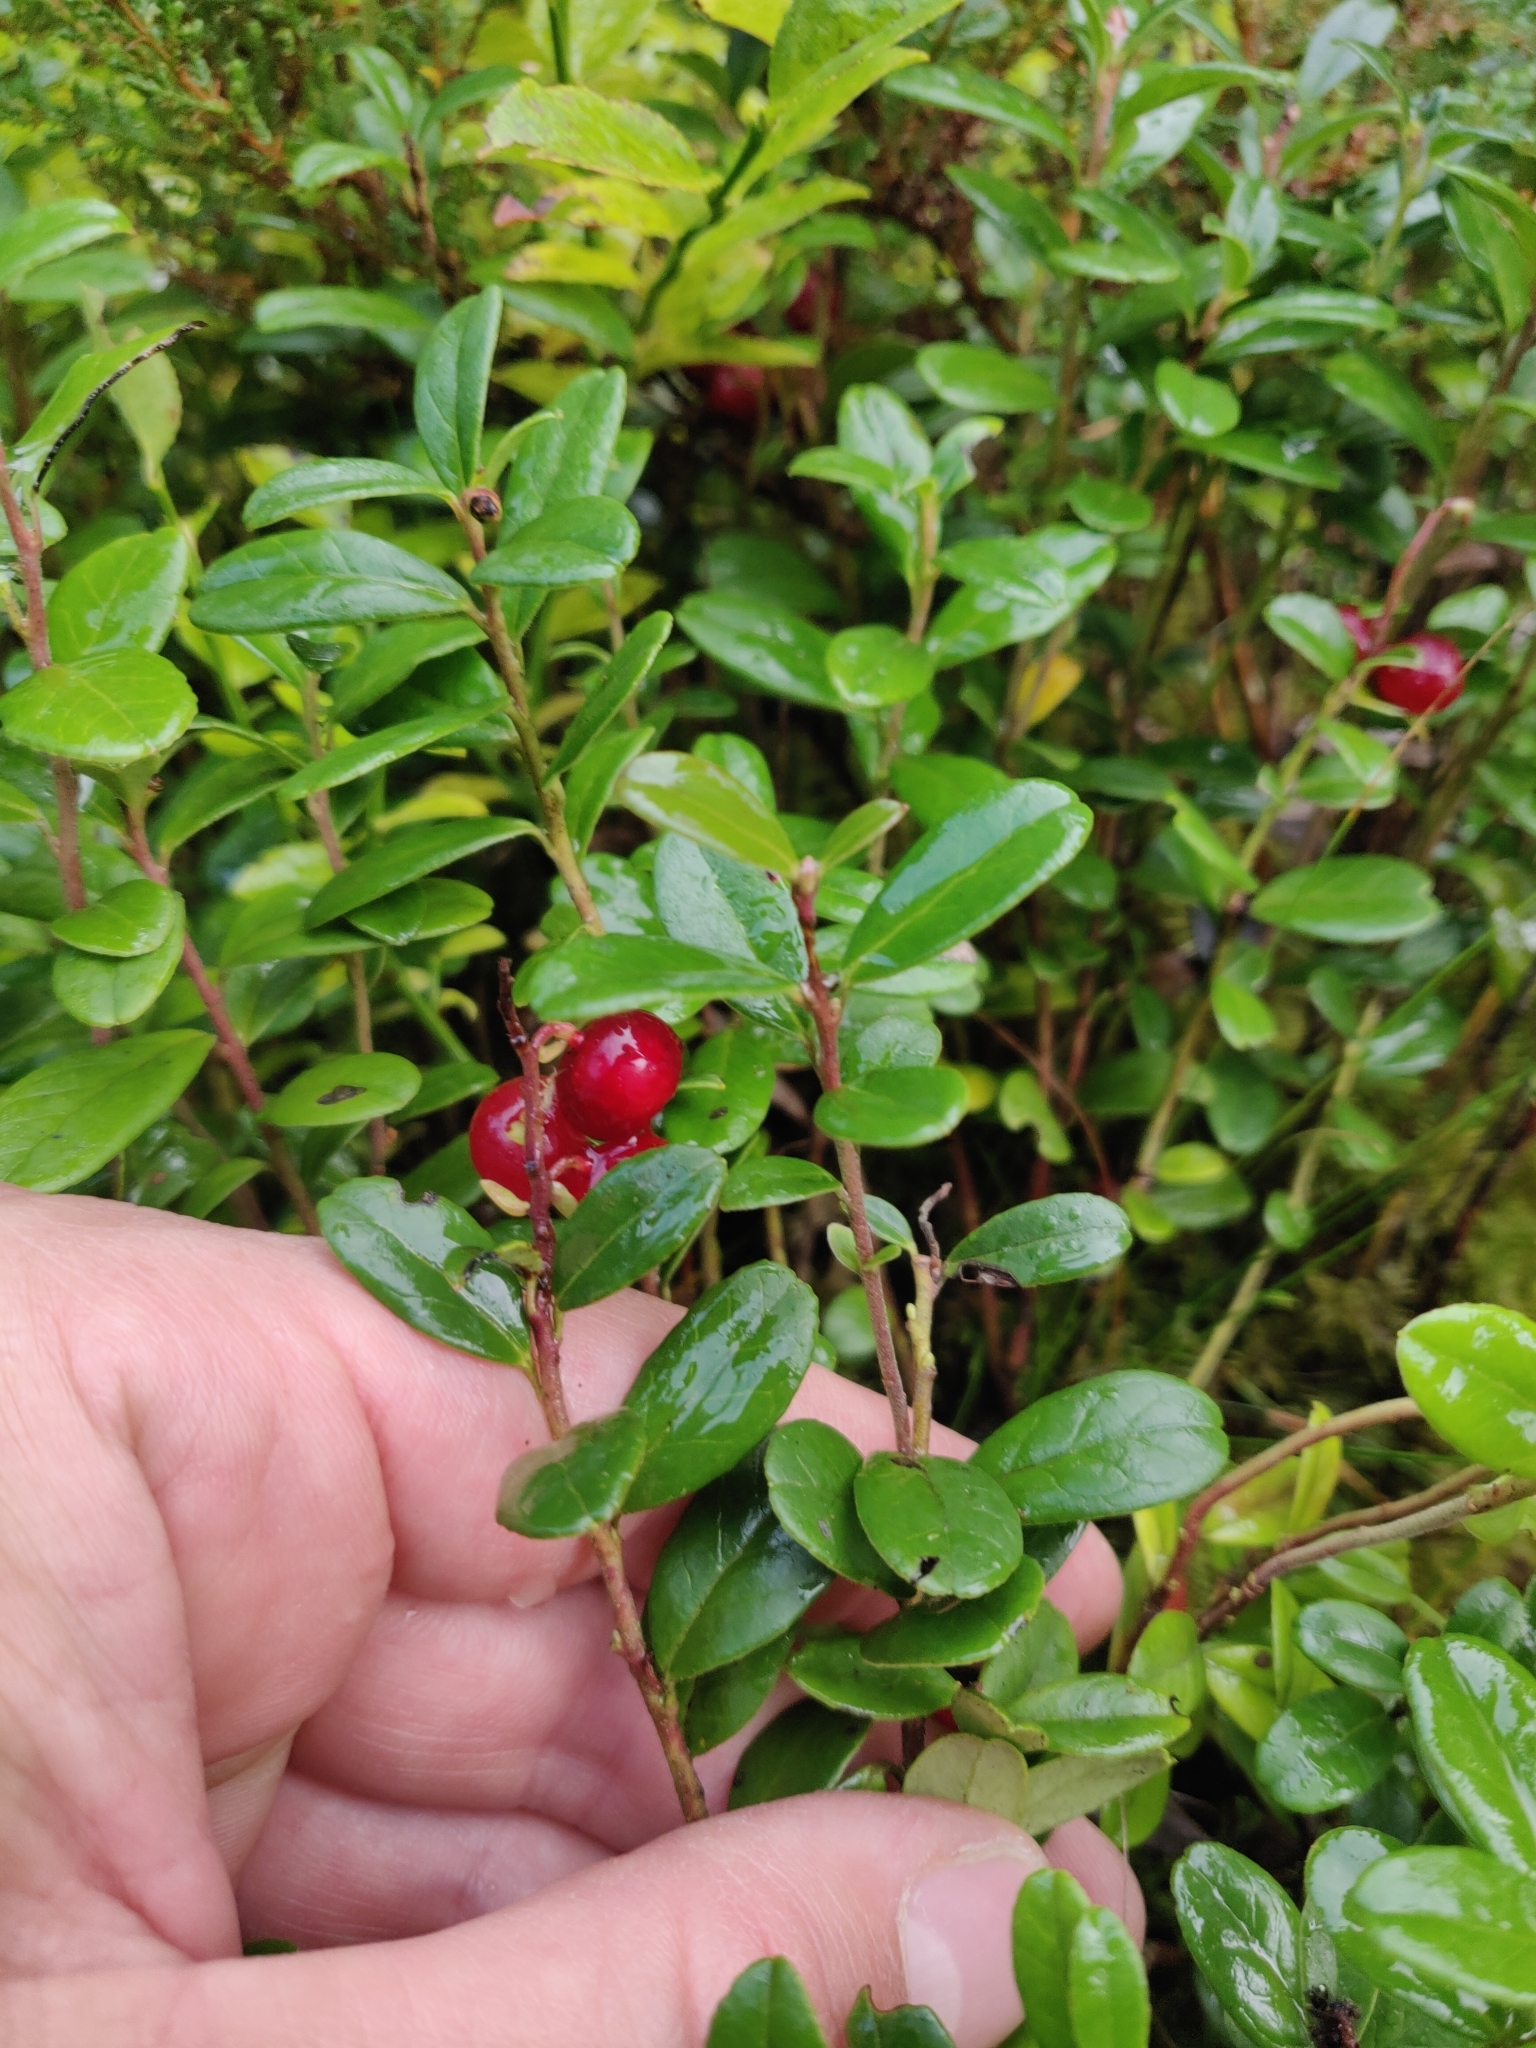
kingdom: Plantae
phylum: Tracheophyta
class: Magnoliopsida
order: Ericales
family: Ericaceae
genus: Vaccinium
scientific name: Vaccinium vitis-idaea
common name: Cowberry
